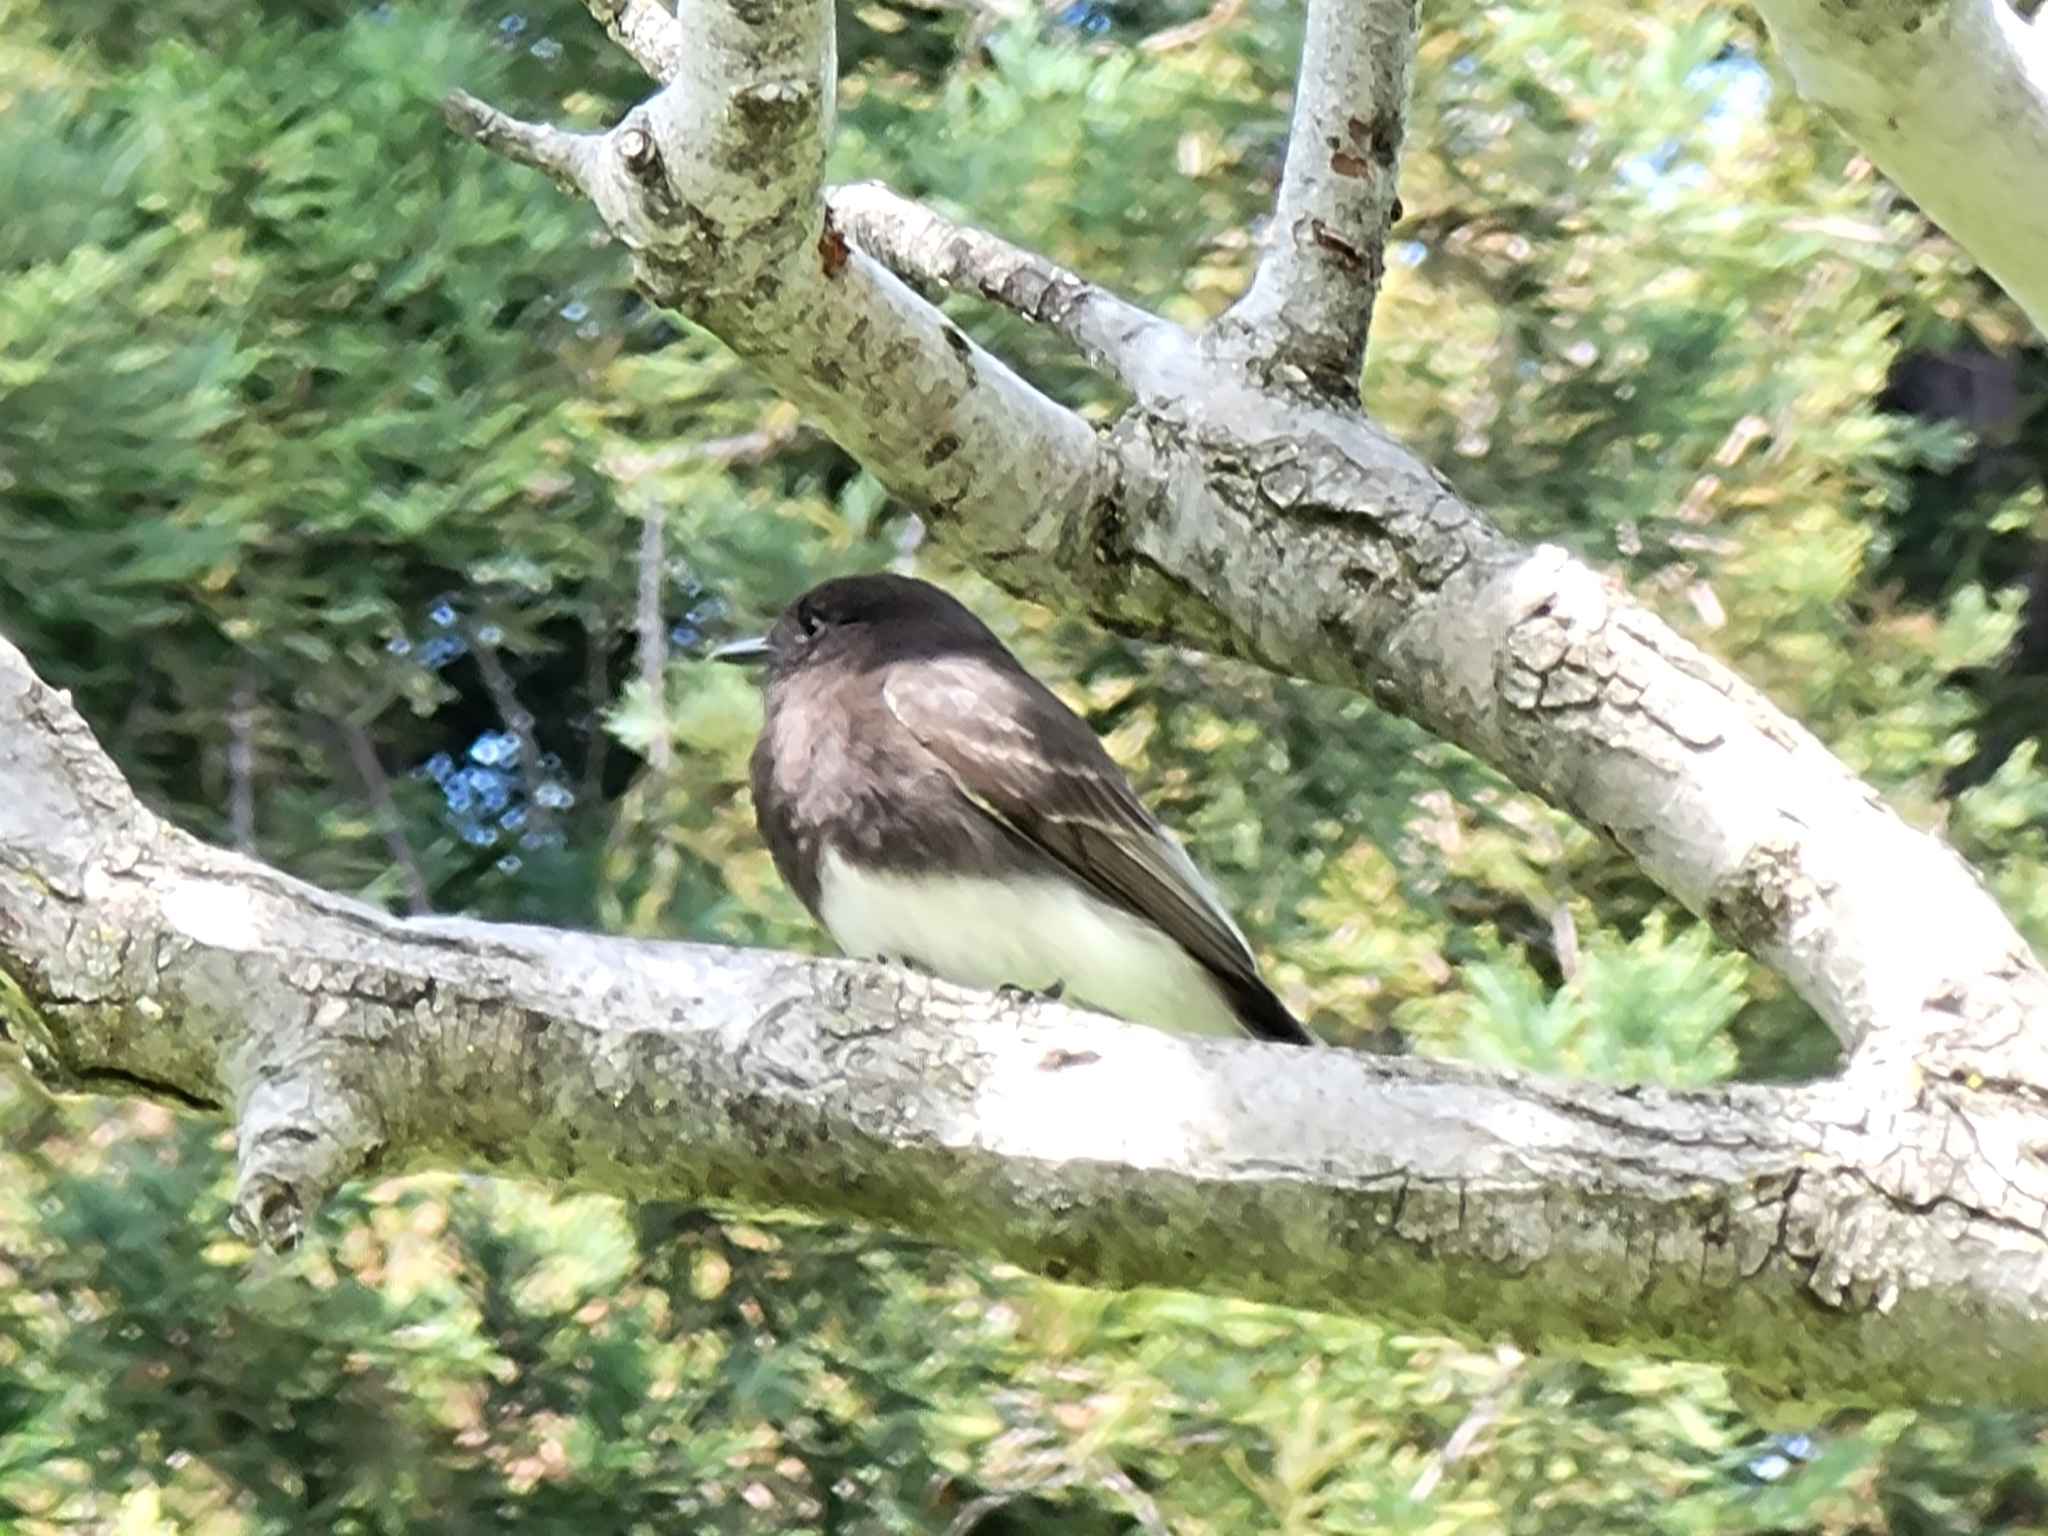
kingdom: Animalia
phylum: Chordata
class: Aves
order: Passeriformes
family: Tyrannidae
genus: Sayornis
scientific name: Sayornis nigricans
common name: Black phoebe
